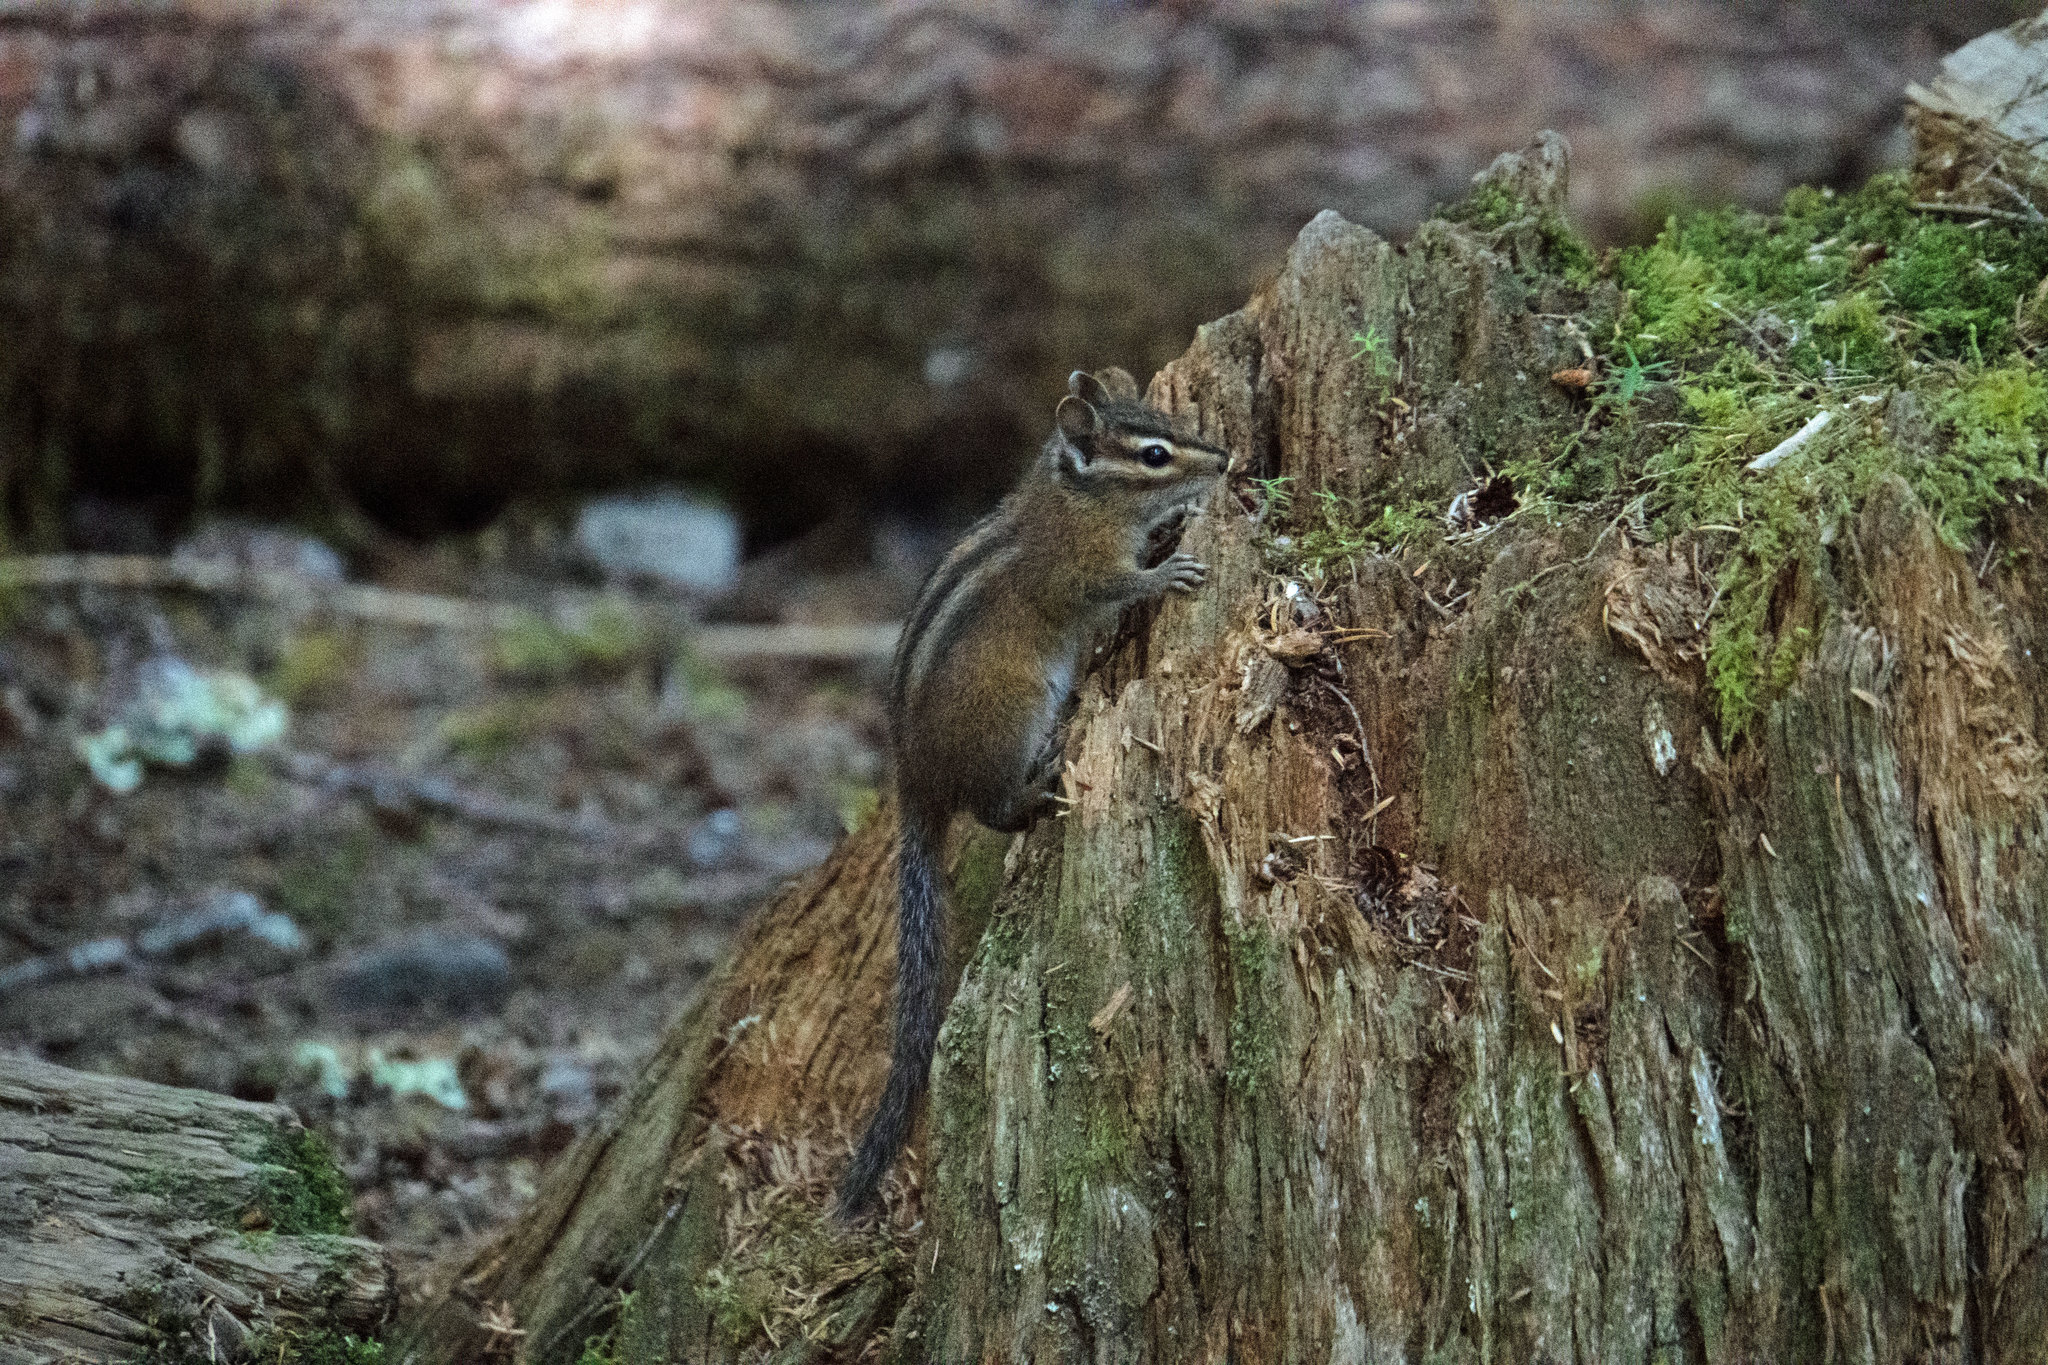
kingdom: Animalia
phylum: Chordata
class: Mammalia
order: Rodentia
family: Sciuridae
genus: Tamias
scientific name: Tamias townsendii
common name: Townsend's chipmunk
